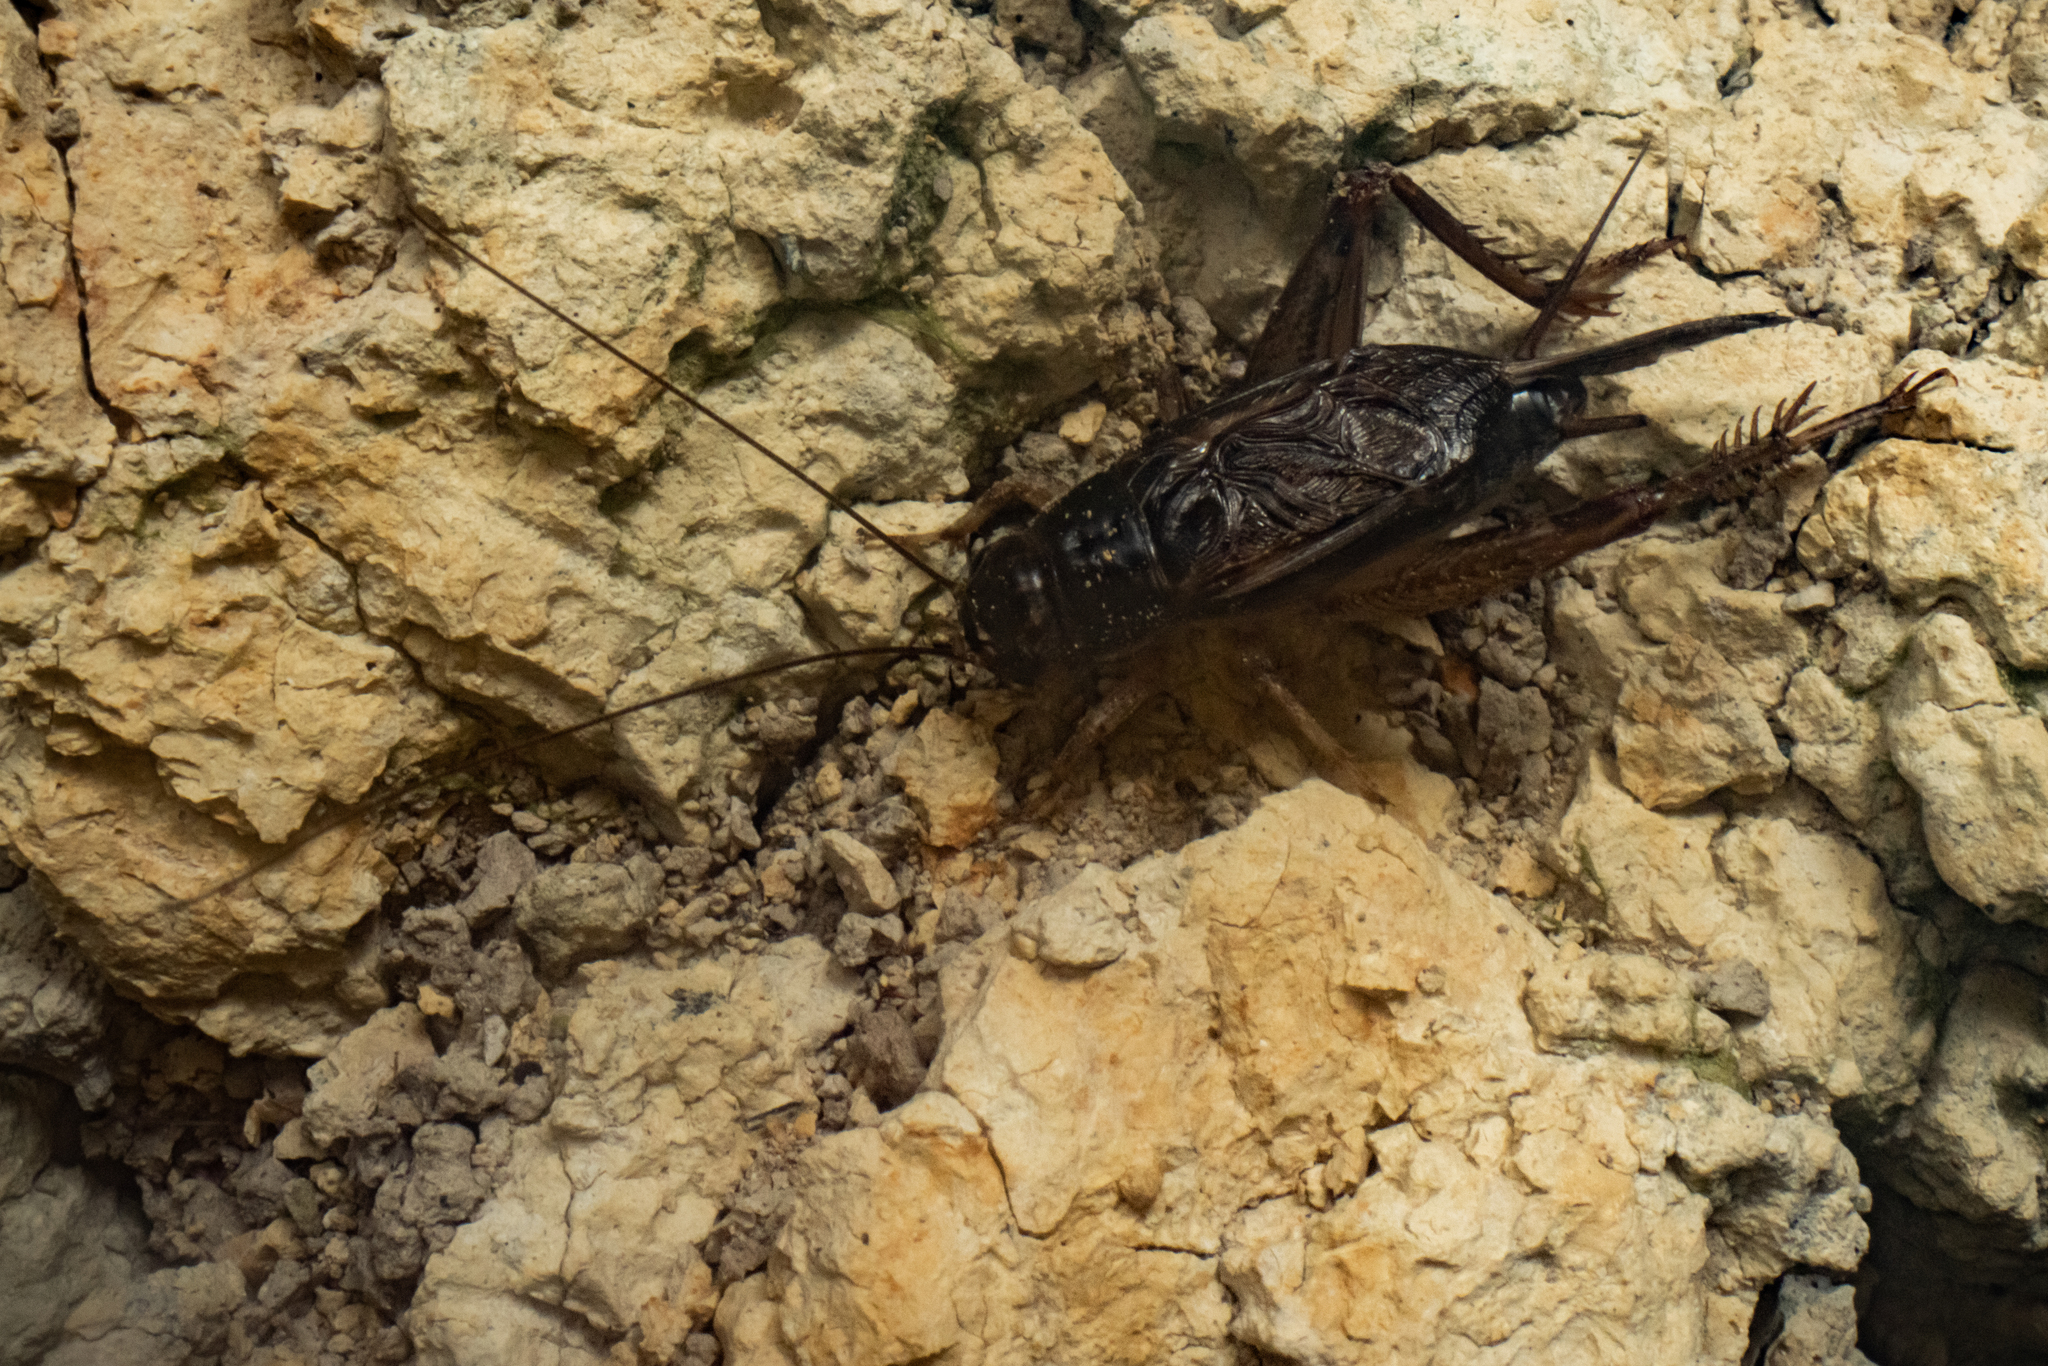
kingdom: Animalia
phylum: Arthropoda
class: Insecta
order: Orthoptera
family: Gryllidae
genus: Lepidogryllus
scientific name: Lepidogryllus parvulus
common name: Fast-chirping field crickets
